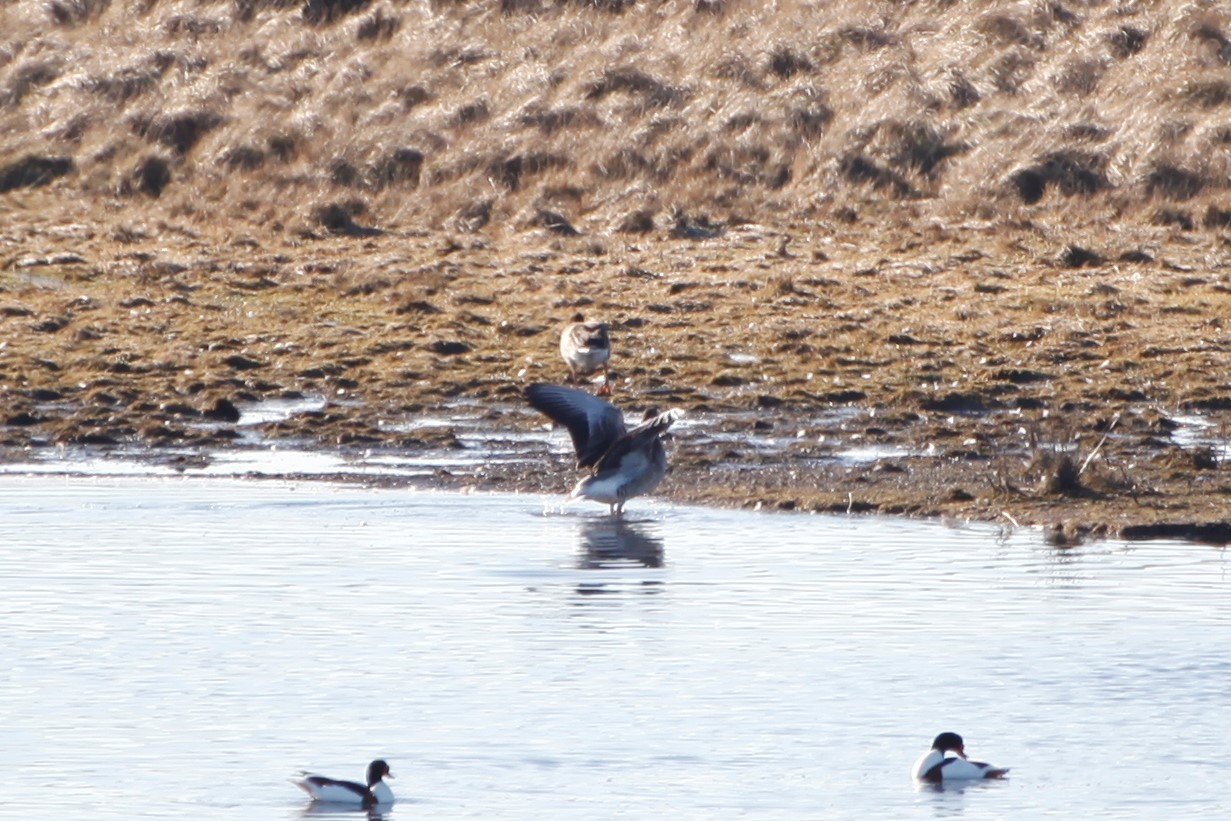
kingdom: Animalia
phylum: Chordata
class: Aves
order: Anseriformes
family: Anatidae
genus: Anser
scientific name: Anser anser
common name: Greylag goose
